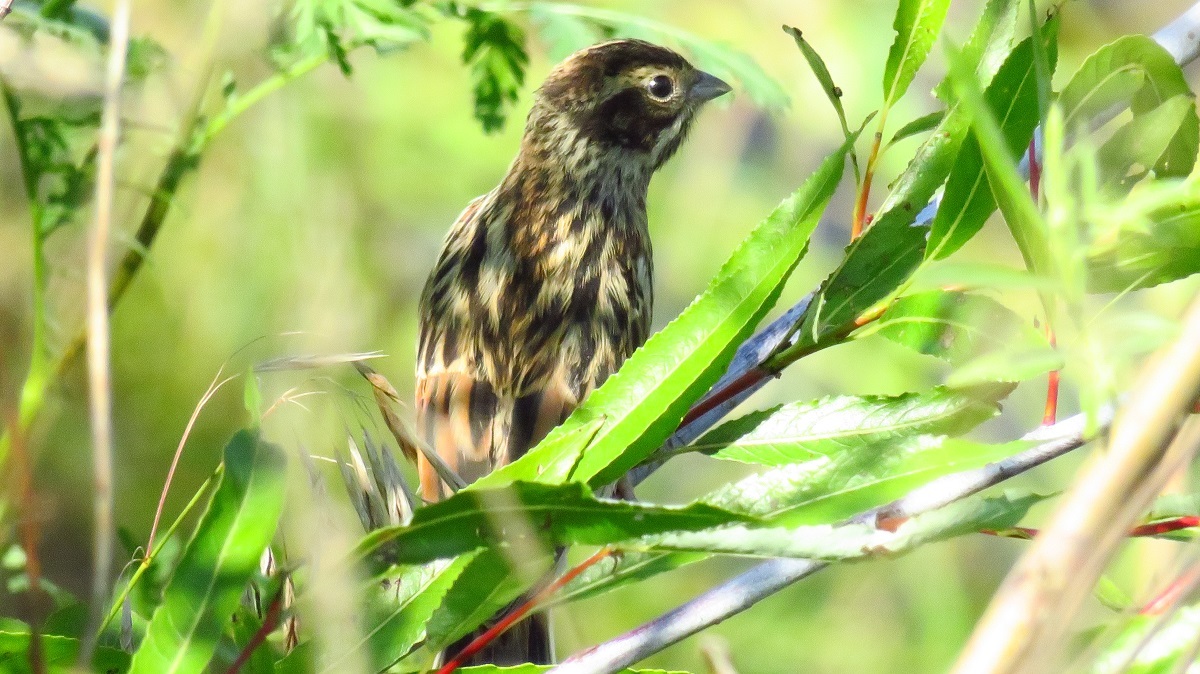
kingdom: Animalia
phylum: Chordata
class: Aves
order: Passeriformes
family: Emberizidae
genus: Emberiza
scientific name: Emberiza schoeniclus
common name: Reed bunting
